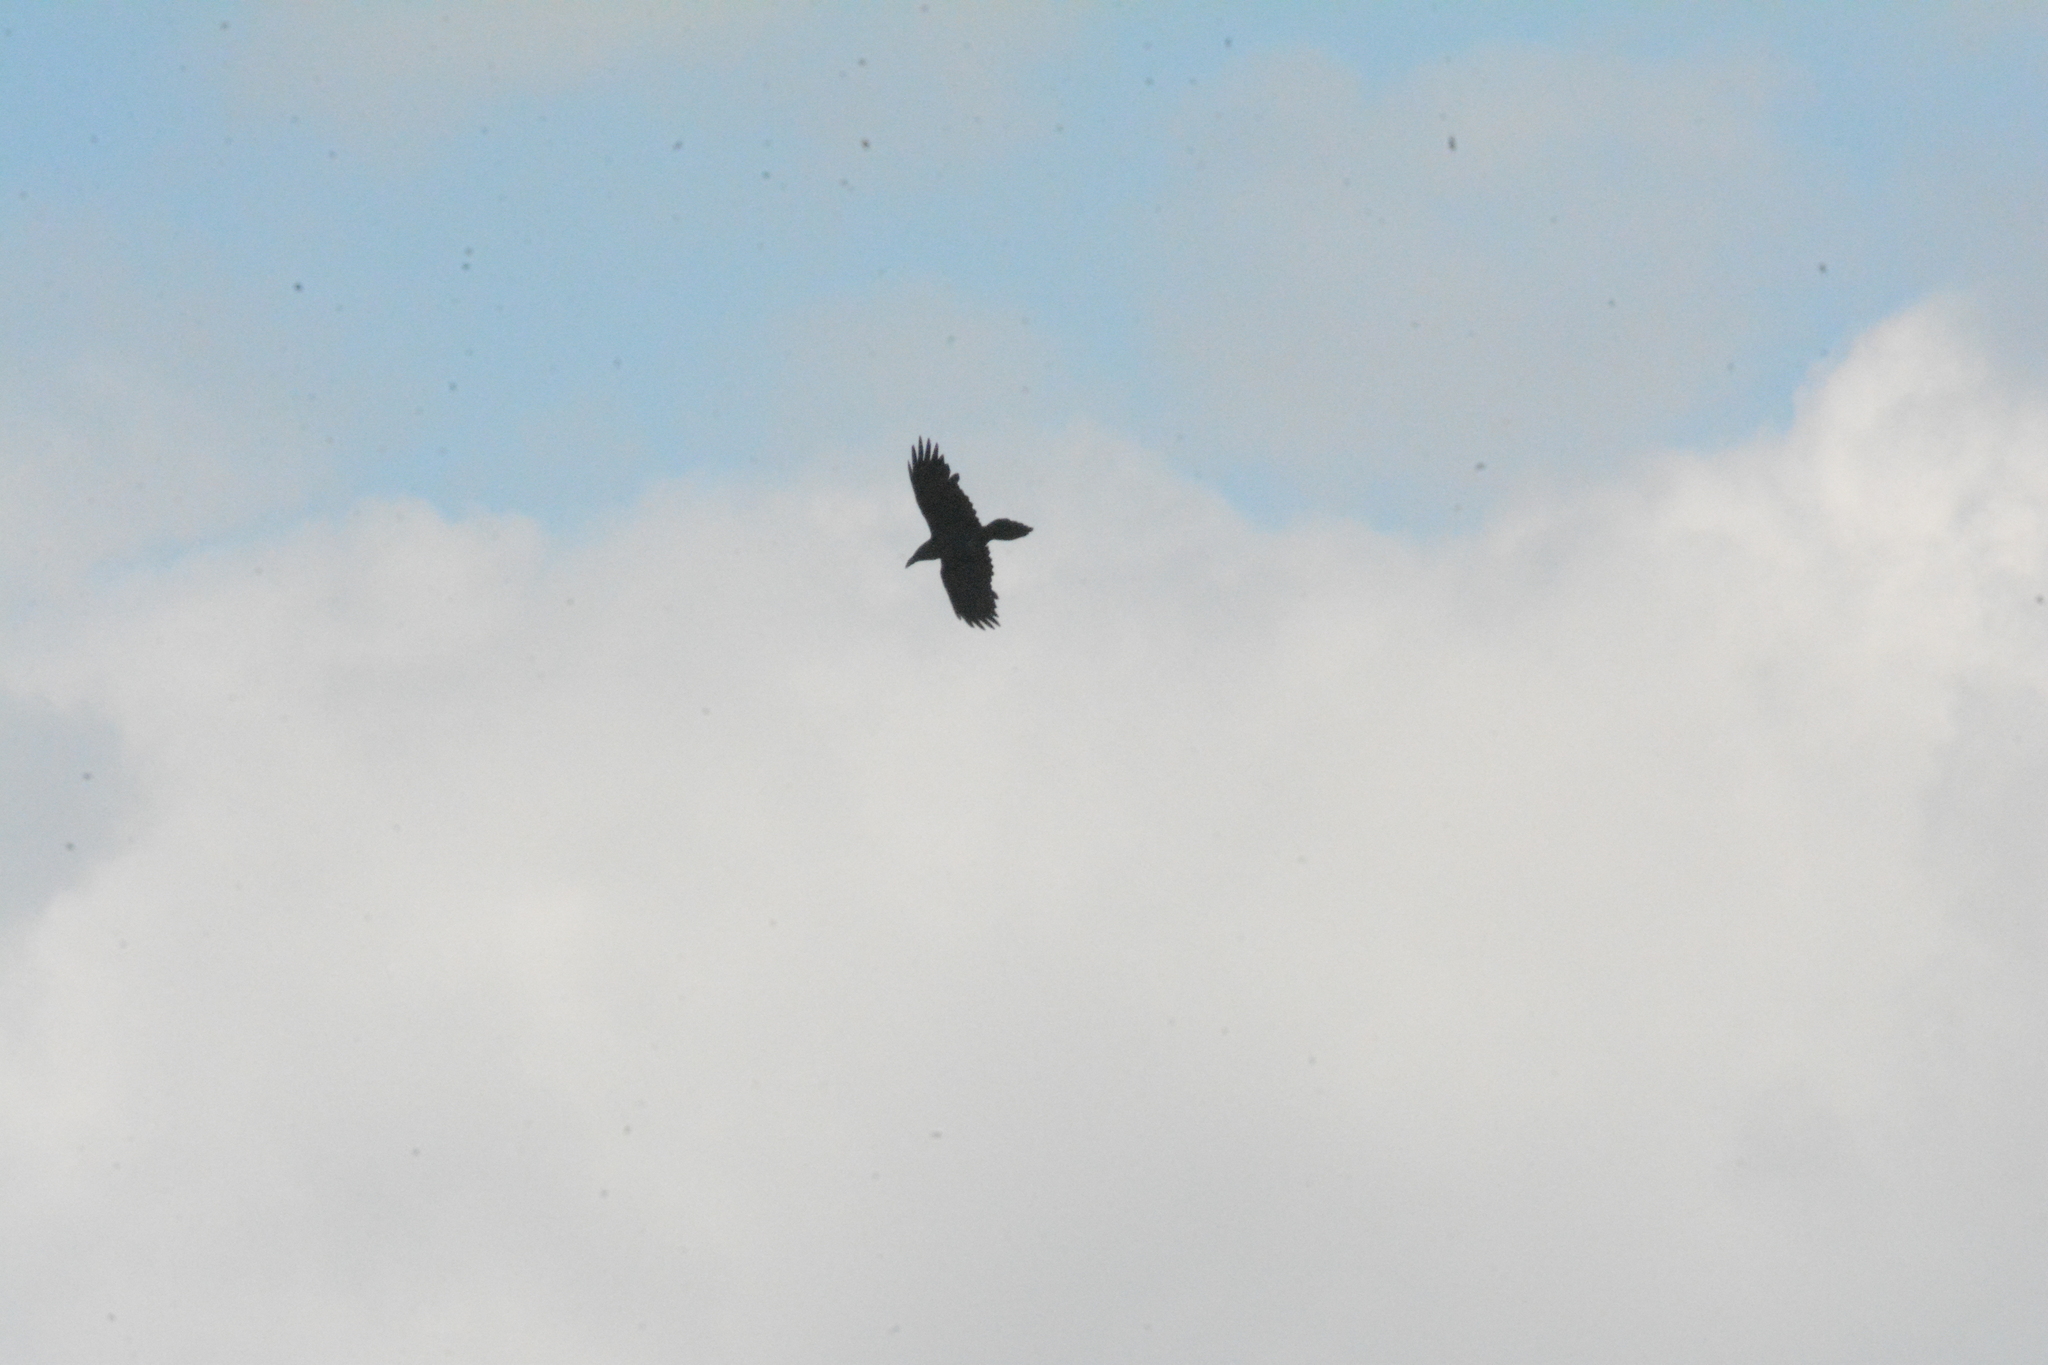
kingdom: Animalia
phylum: Chordata
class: Aves
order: Passeriformes
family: Corvidae
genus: Corvus
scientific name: Corvus corax
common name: Common raven
